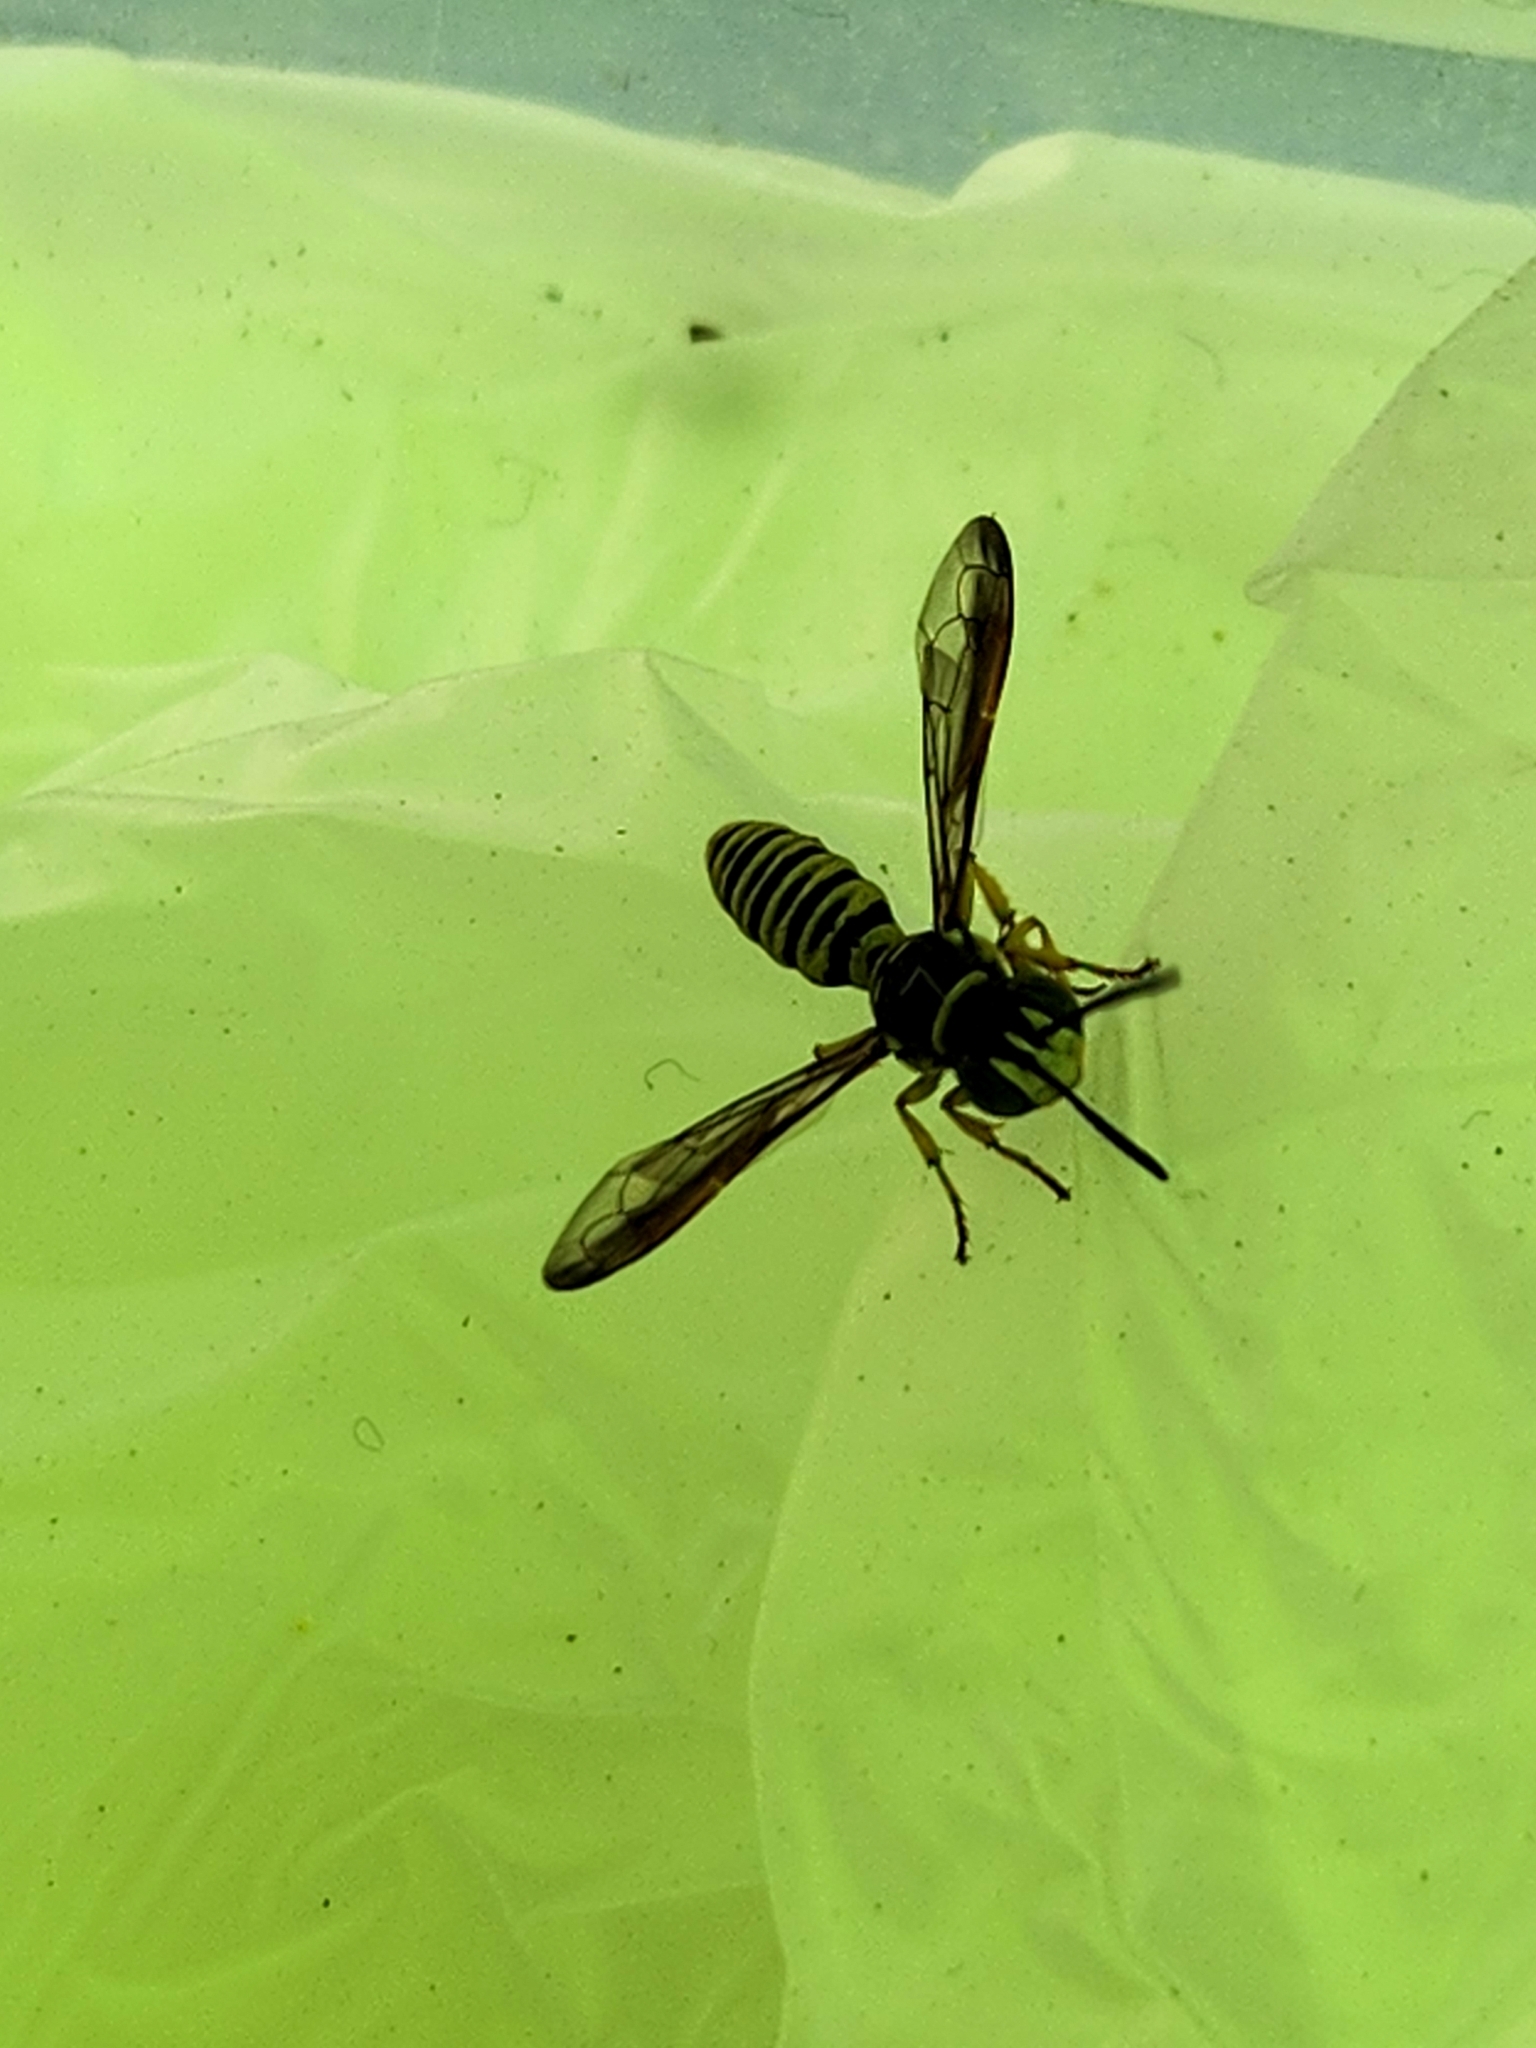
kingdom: Animalia
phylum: Arthropoda
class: Insecta
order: Hymenoptera
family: Crabronidae
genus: Eucerceris
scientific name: Eucerceris provancheri
